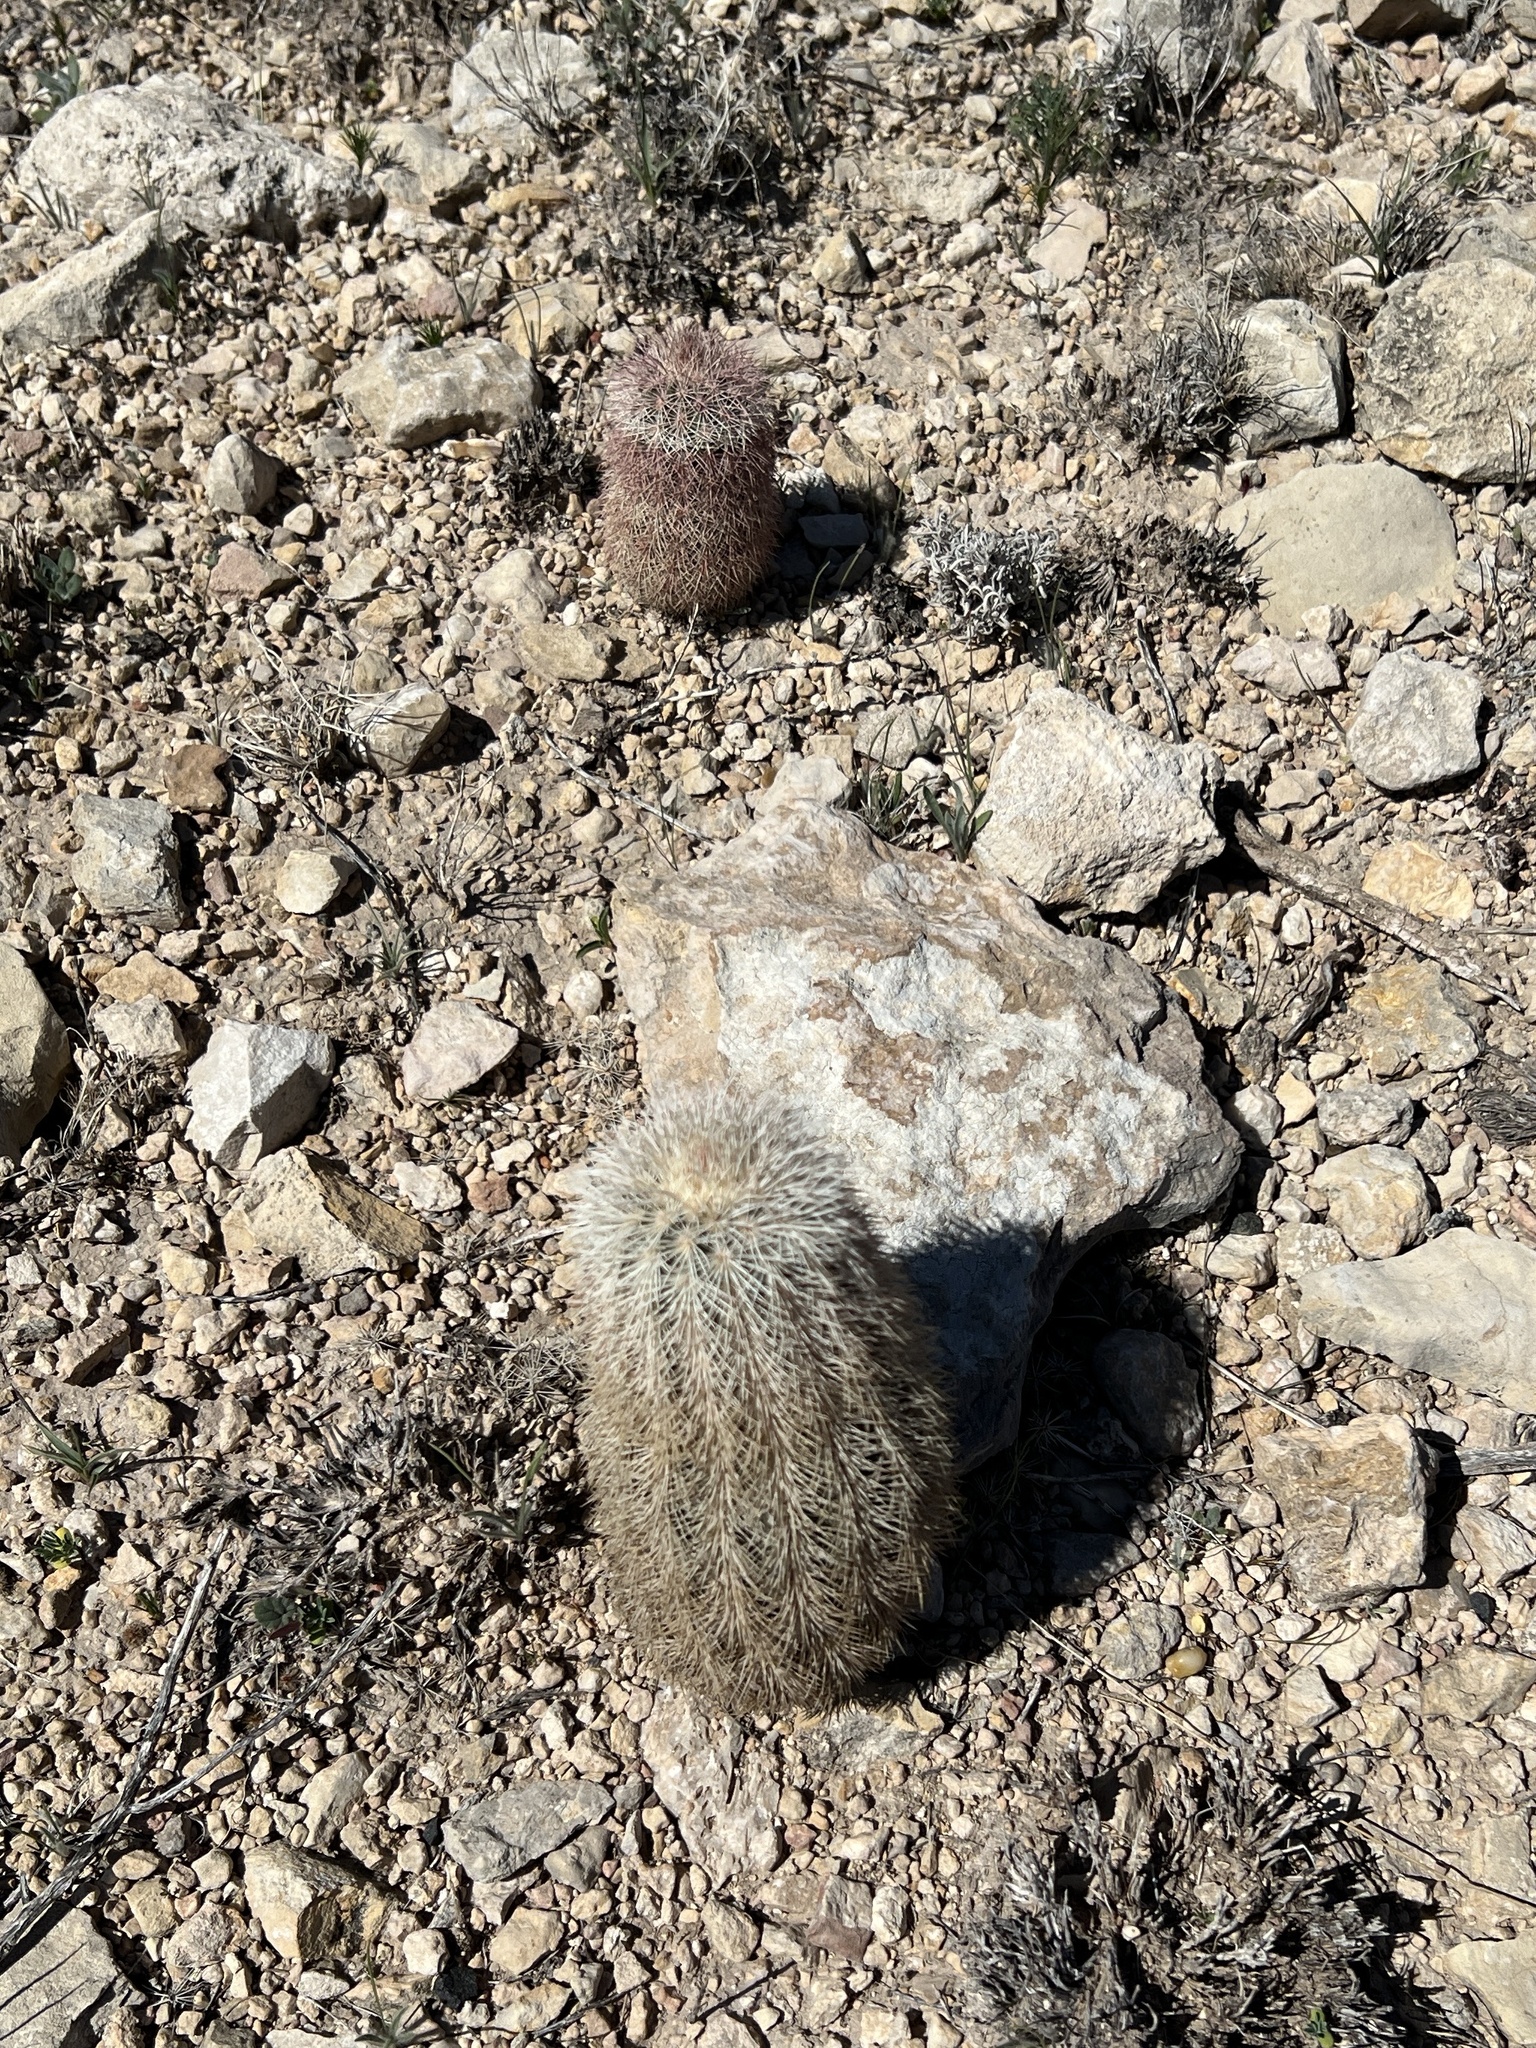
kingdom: Plantae
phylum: Tracheophyta
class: Magnoliopsida
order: Caryophyllales
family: Cactaceae
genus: Echinocereus
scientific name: Echinocereus dasyacanthus
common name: Spiny hedgehog cactus
